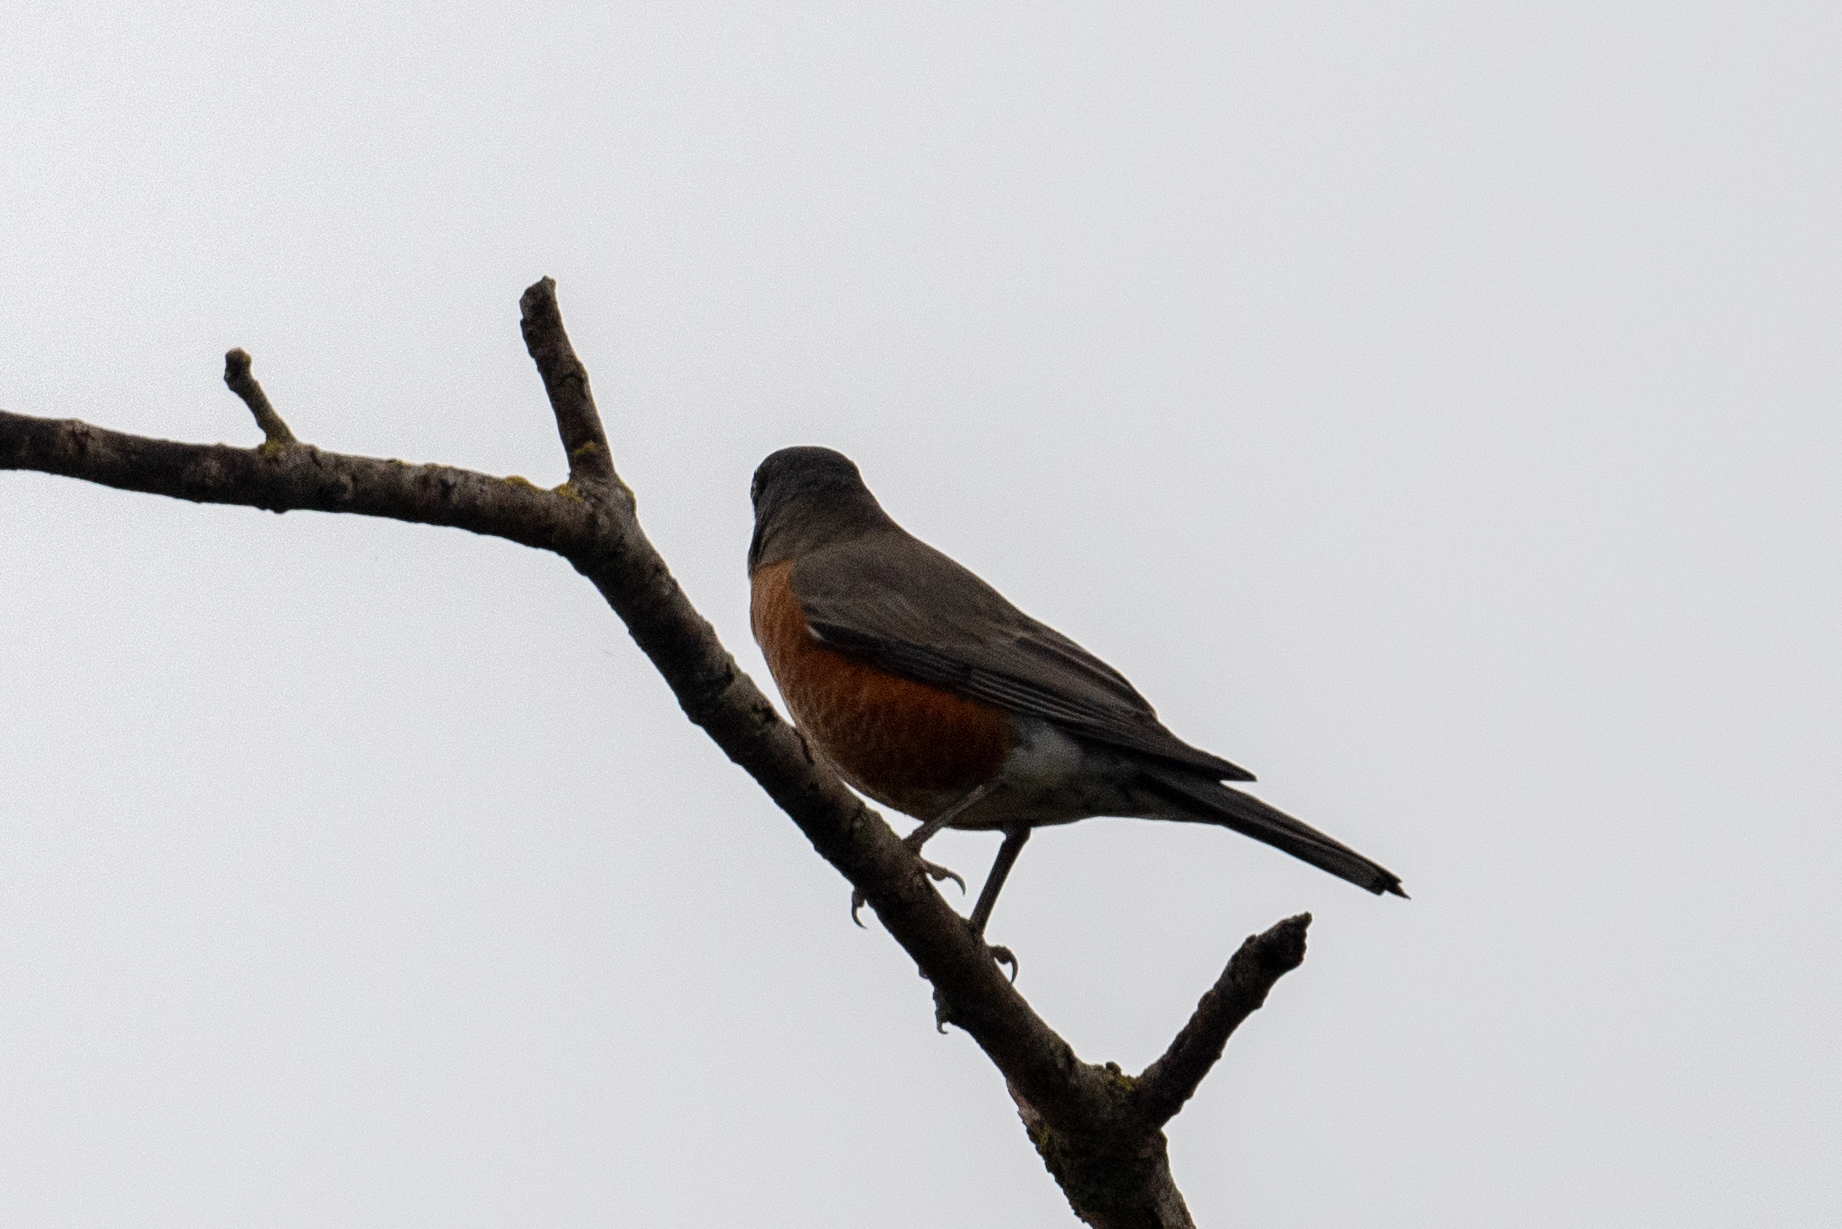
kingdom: Animalia
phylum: Chordata
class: Aves
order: Passeriformes
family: Turdidae
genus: Turdus
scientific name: Turdus migratorius
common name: American robin
